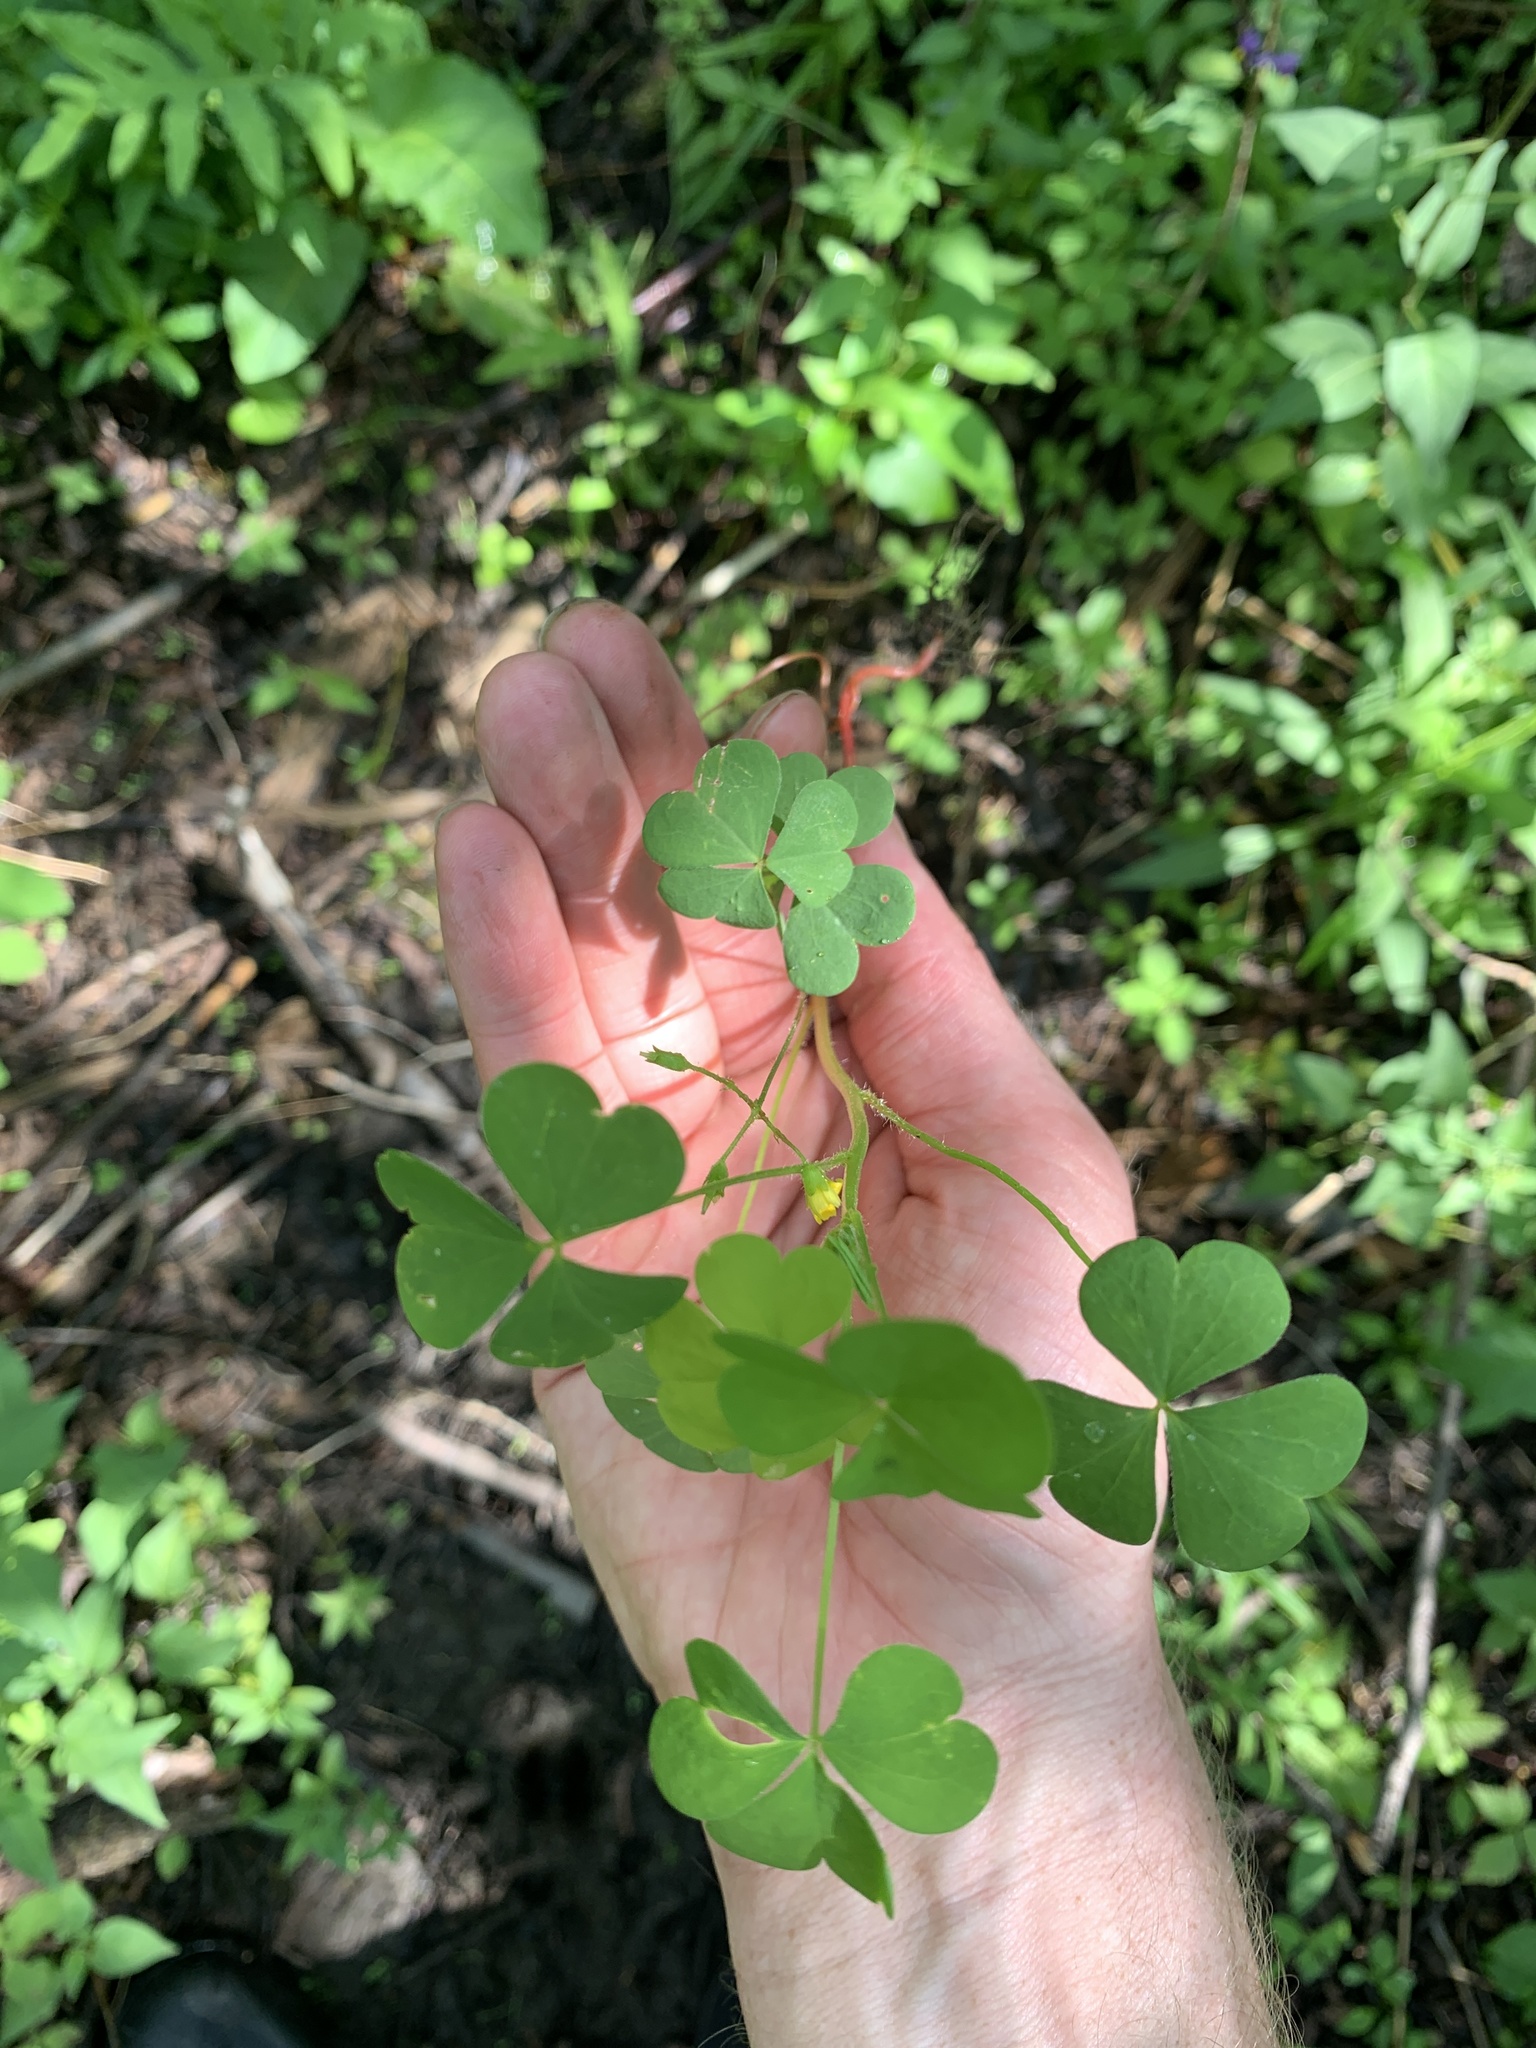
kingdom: Plantae
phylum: Tracheophyta
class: Magnoliopsida
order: Oxalidales
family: Oxalidaceae
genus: Oxalis
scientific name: Oxalis stricta
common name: Upright yellow-sorrel
